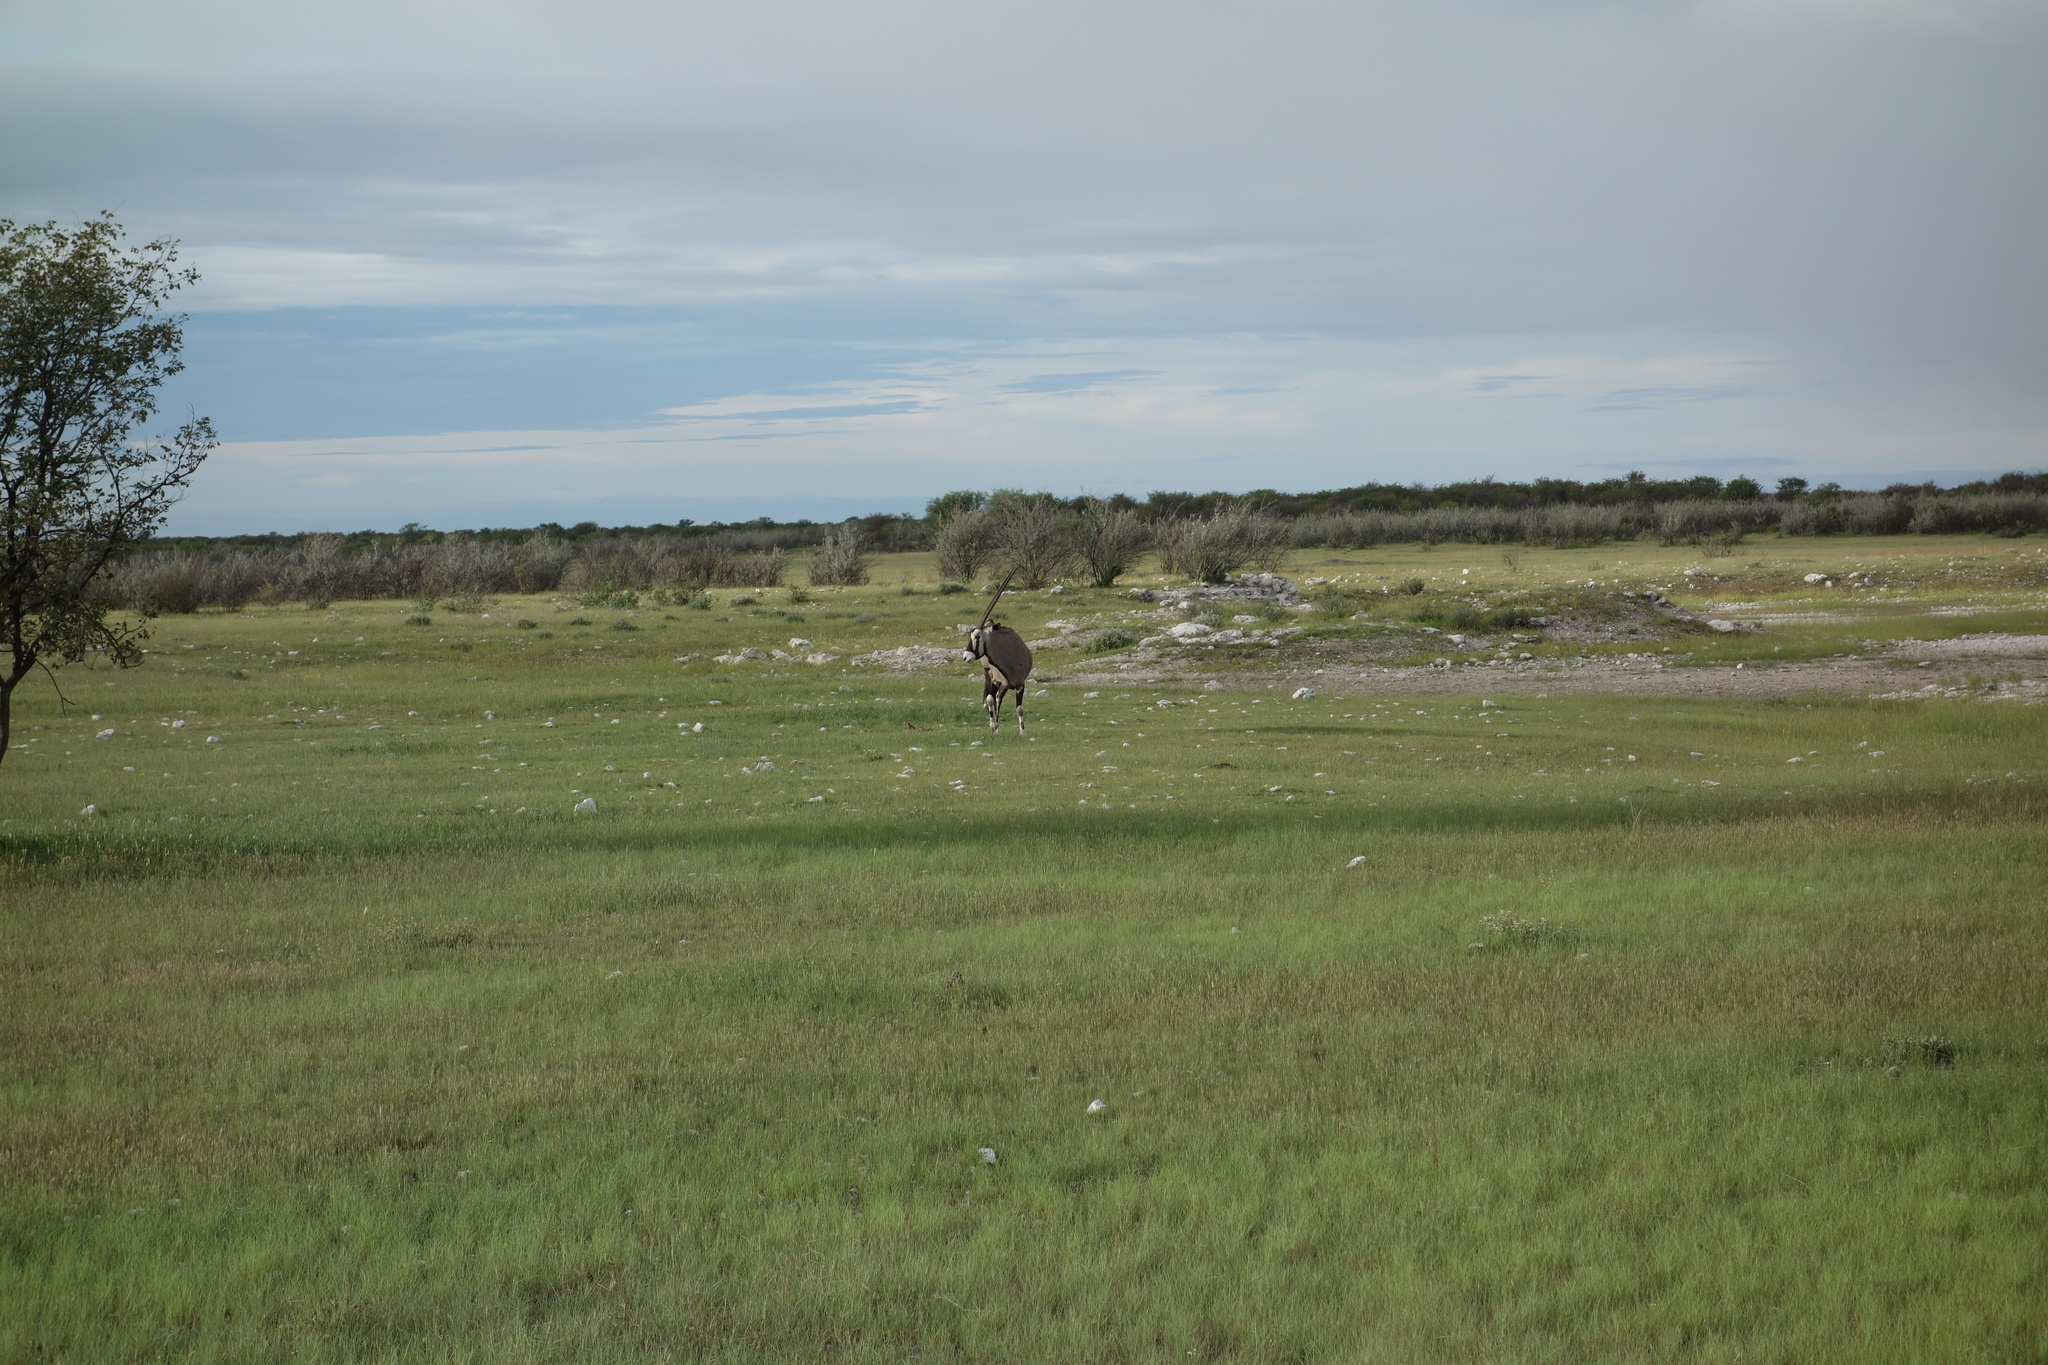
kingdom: Animalia
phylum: Chordata
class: Mammalia
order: Artiodactyla
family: Bovidae
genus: Oryx
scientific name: Oryx gazella
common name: Gemsbok
